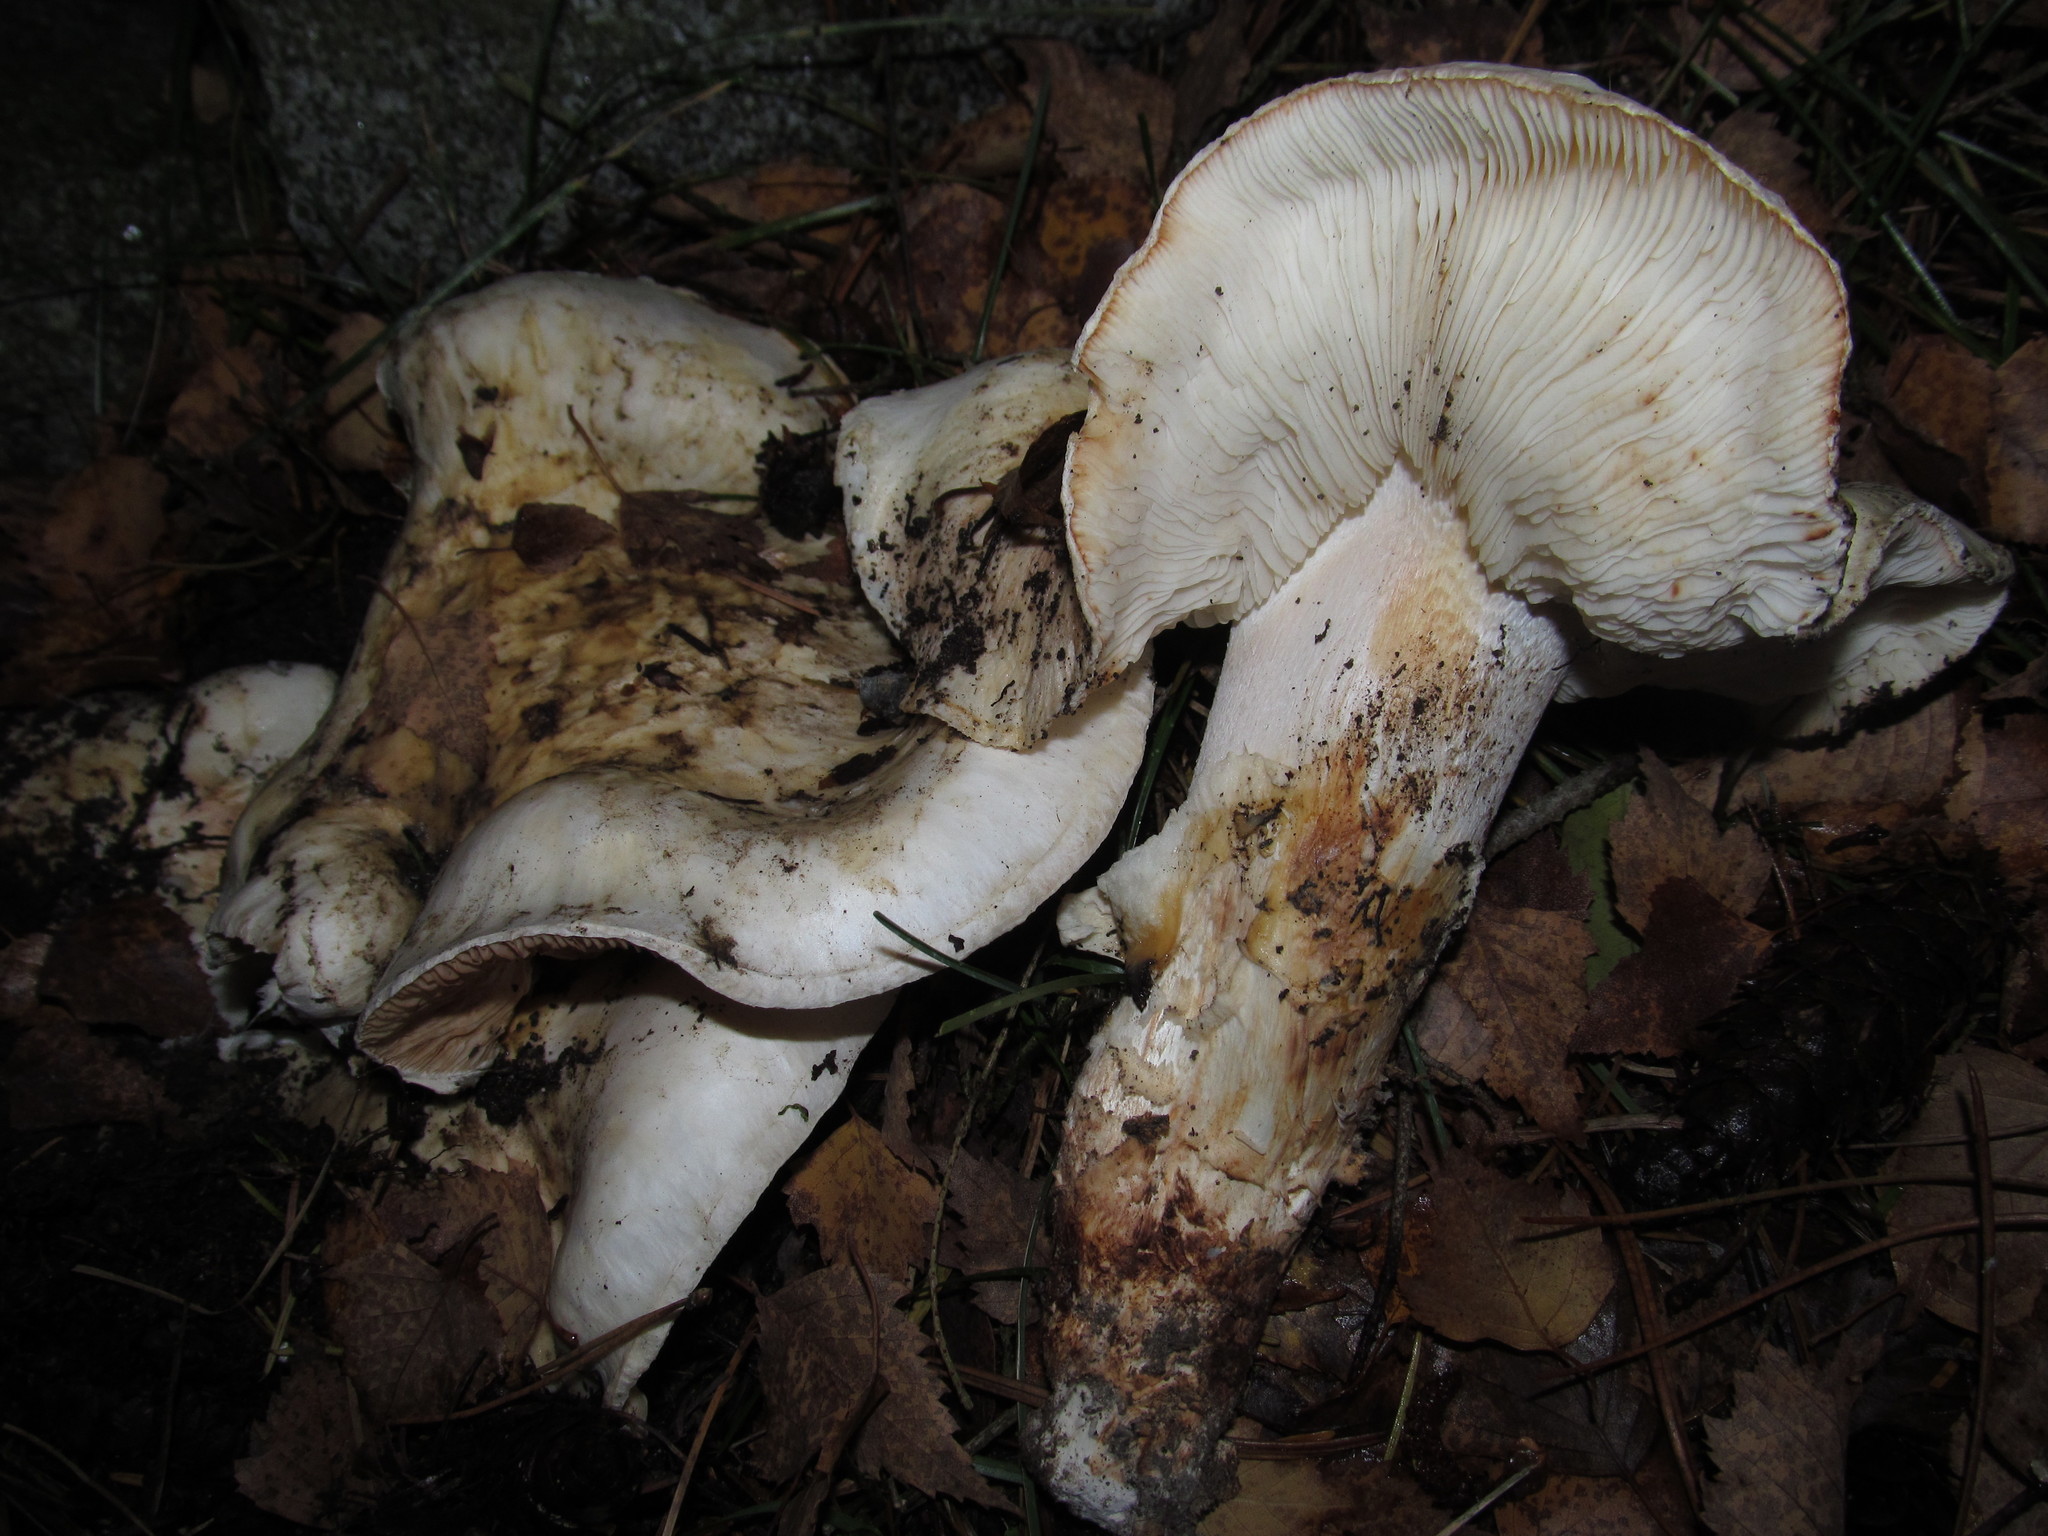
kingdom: Fungi
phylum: Basidiomycota
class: Agaricomycetes
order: Agaricales
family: Tricholomataceae
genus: Tricholoma
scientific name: Tricholoma murrillianum
